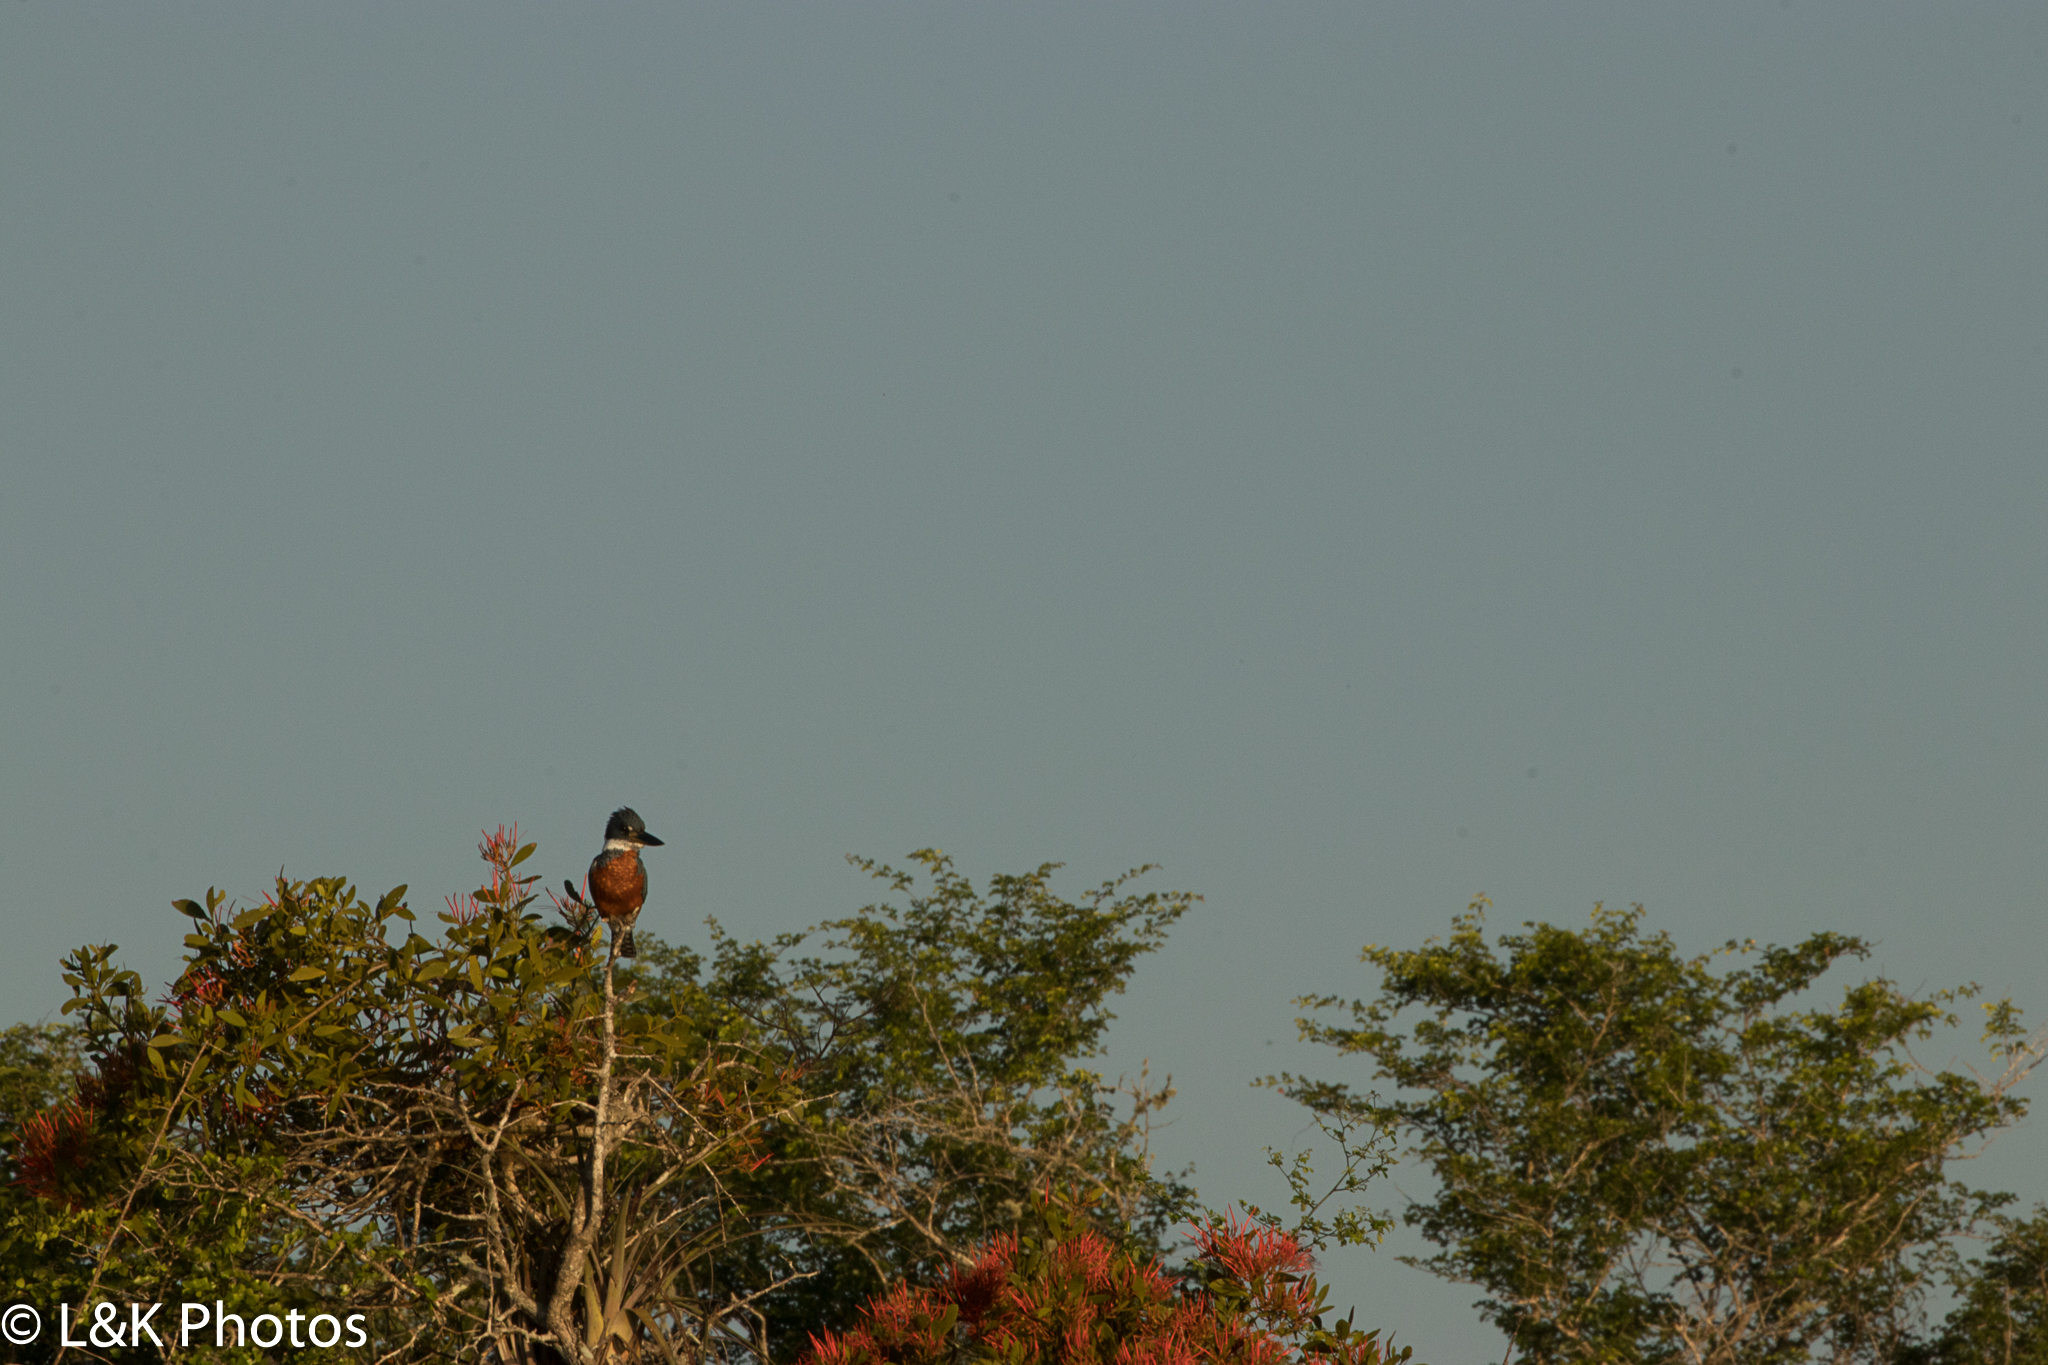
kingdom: Animalia
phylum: Chordata
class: Aves
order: Coraciiformes
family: Alcedinidae
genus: Megaceryle
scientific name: Megaceryle torquata
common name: Ringed kingfisher
